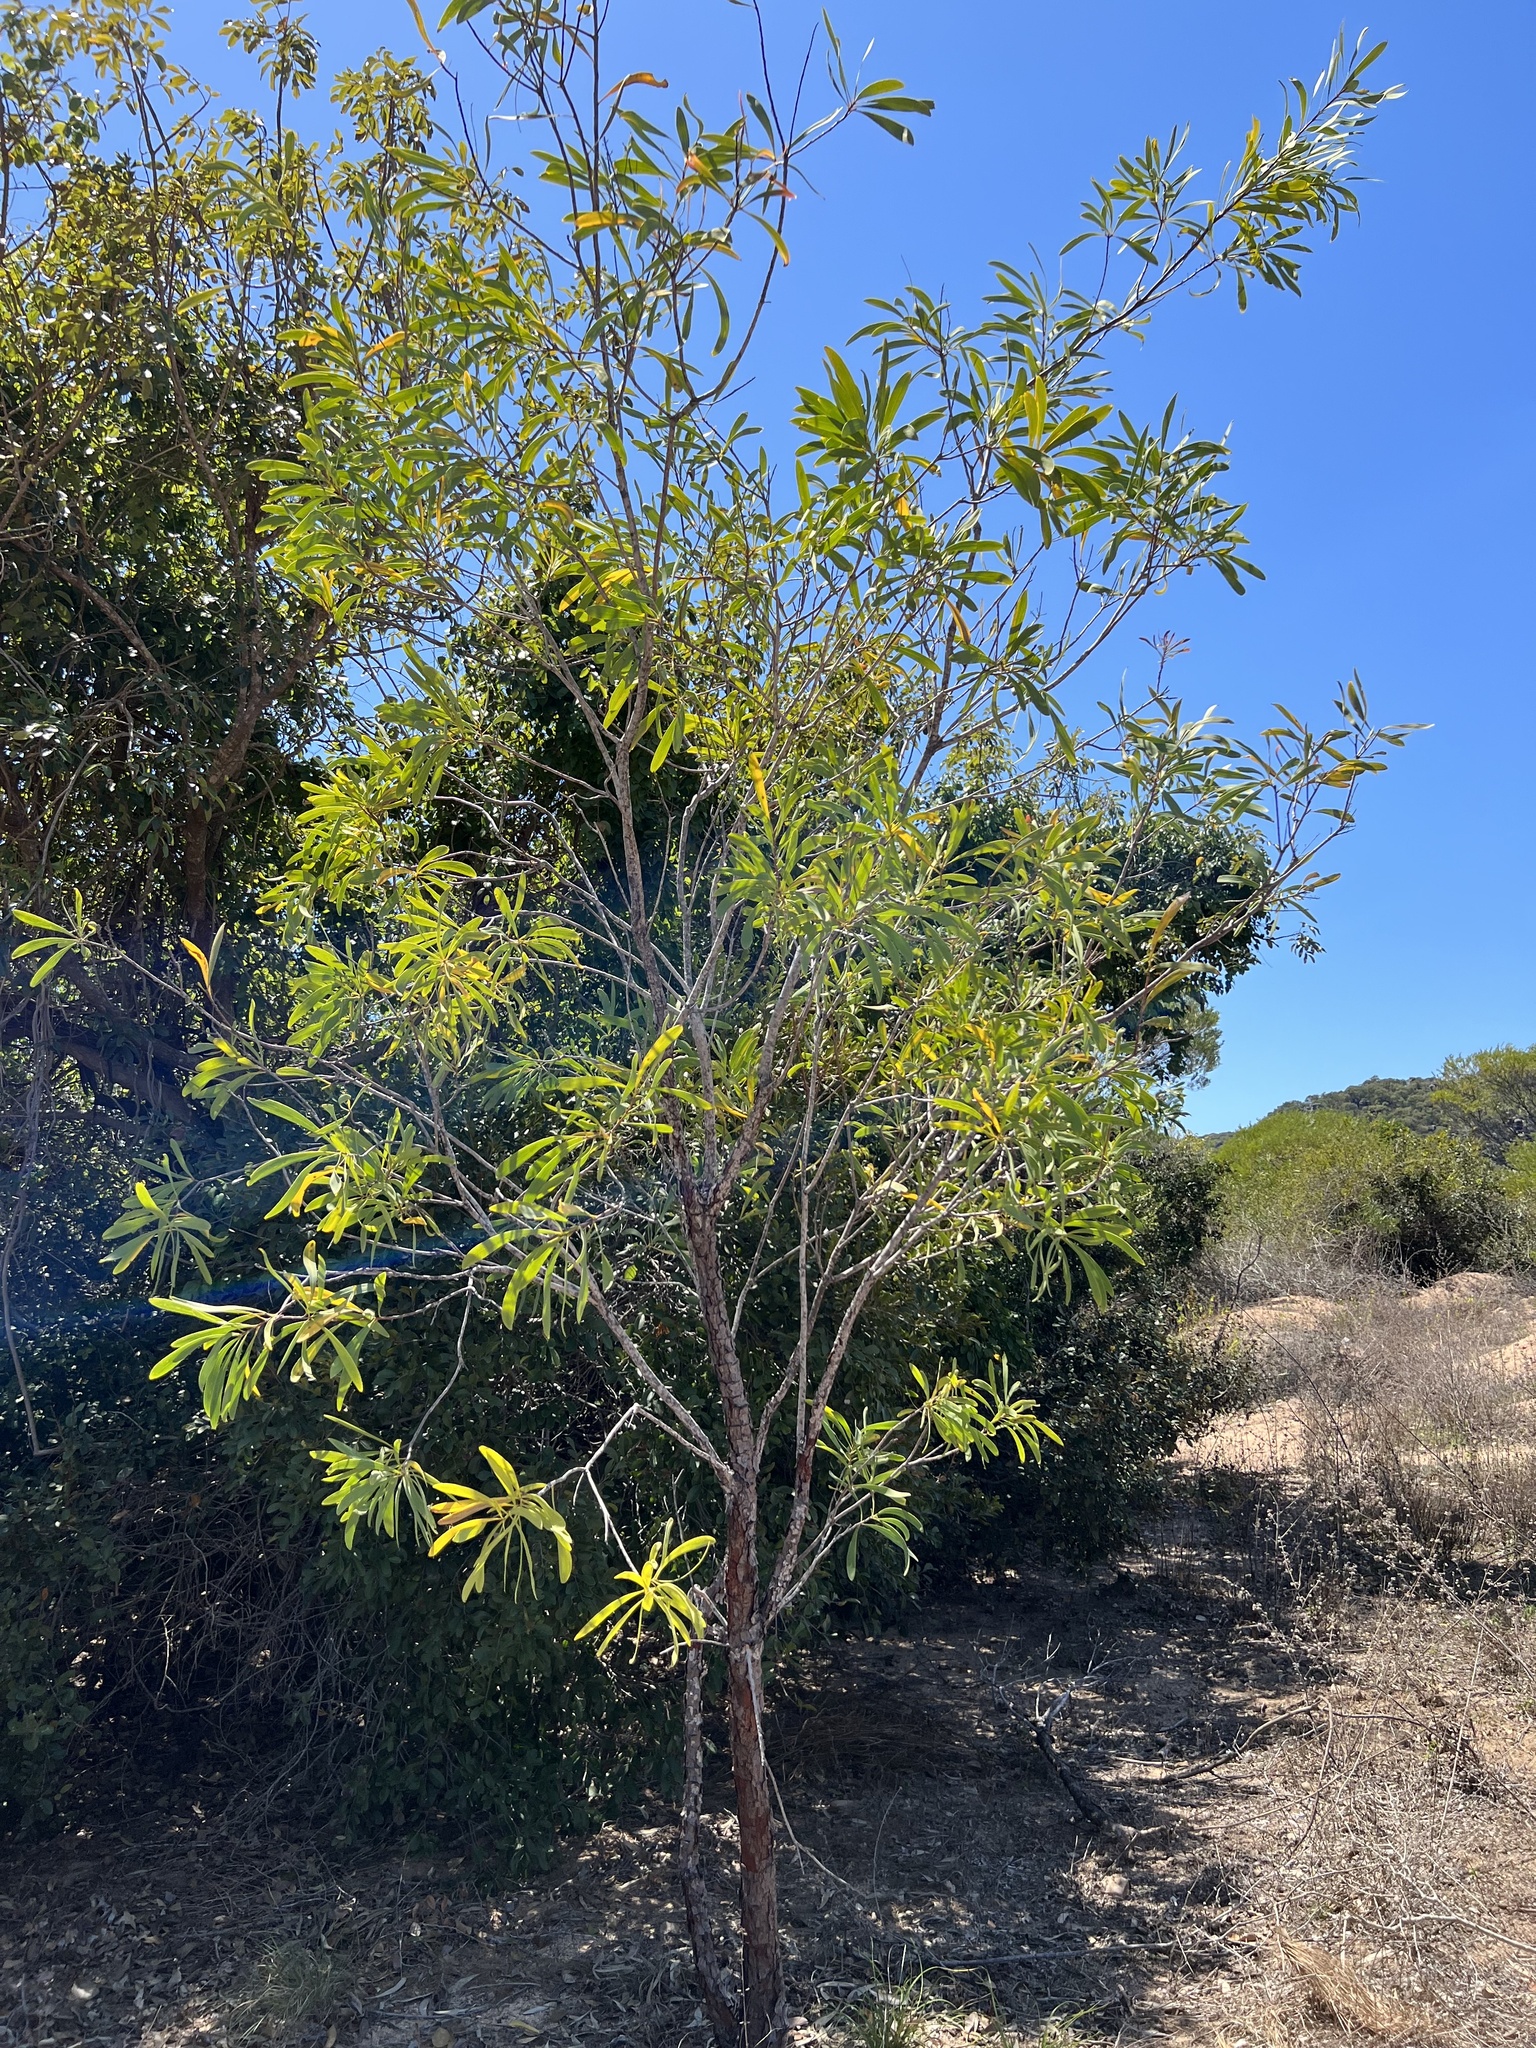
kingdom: Plantae
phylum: Tracheophyta
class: Magnoliopsida
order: Proteales
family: Proteaceae
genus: Persoonia
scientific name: Persoonia falcata
